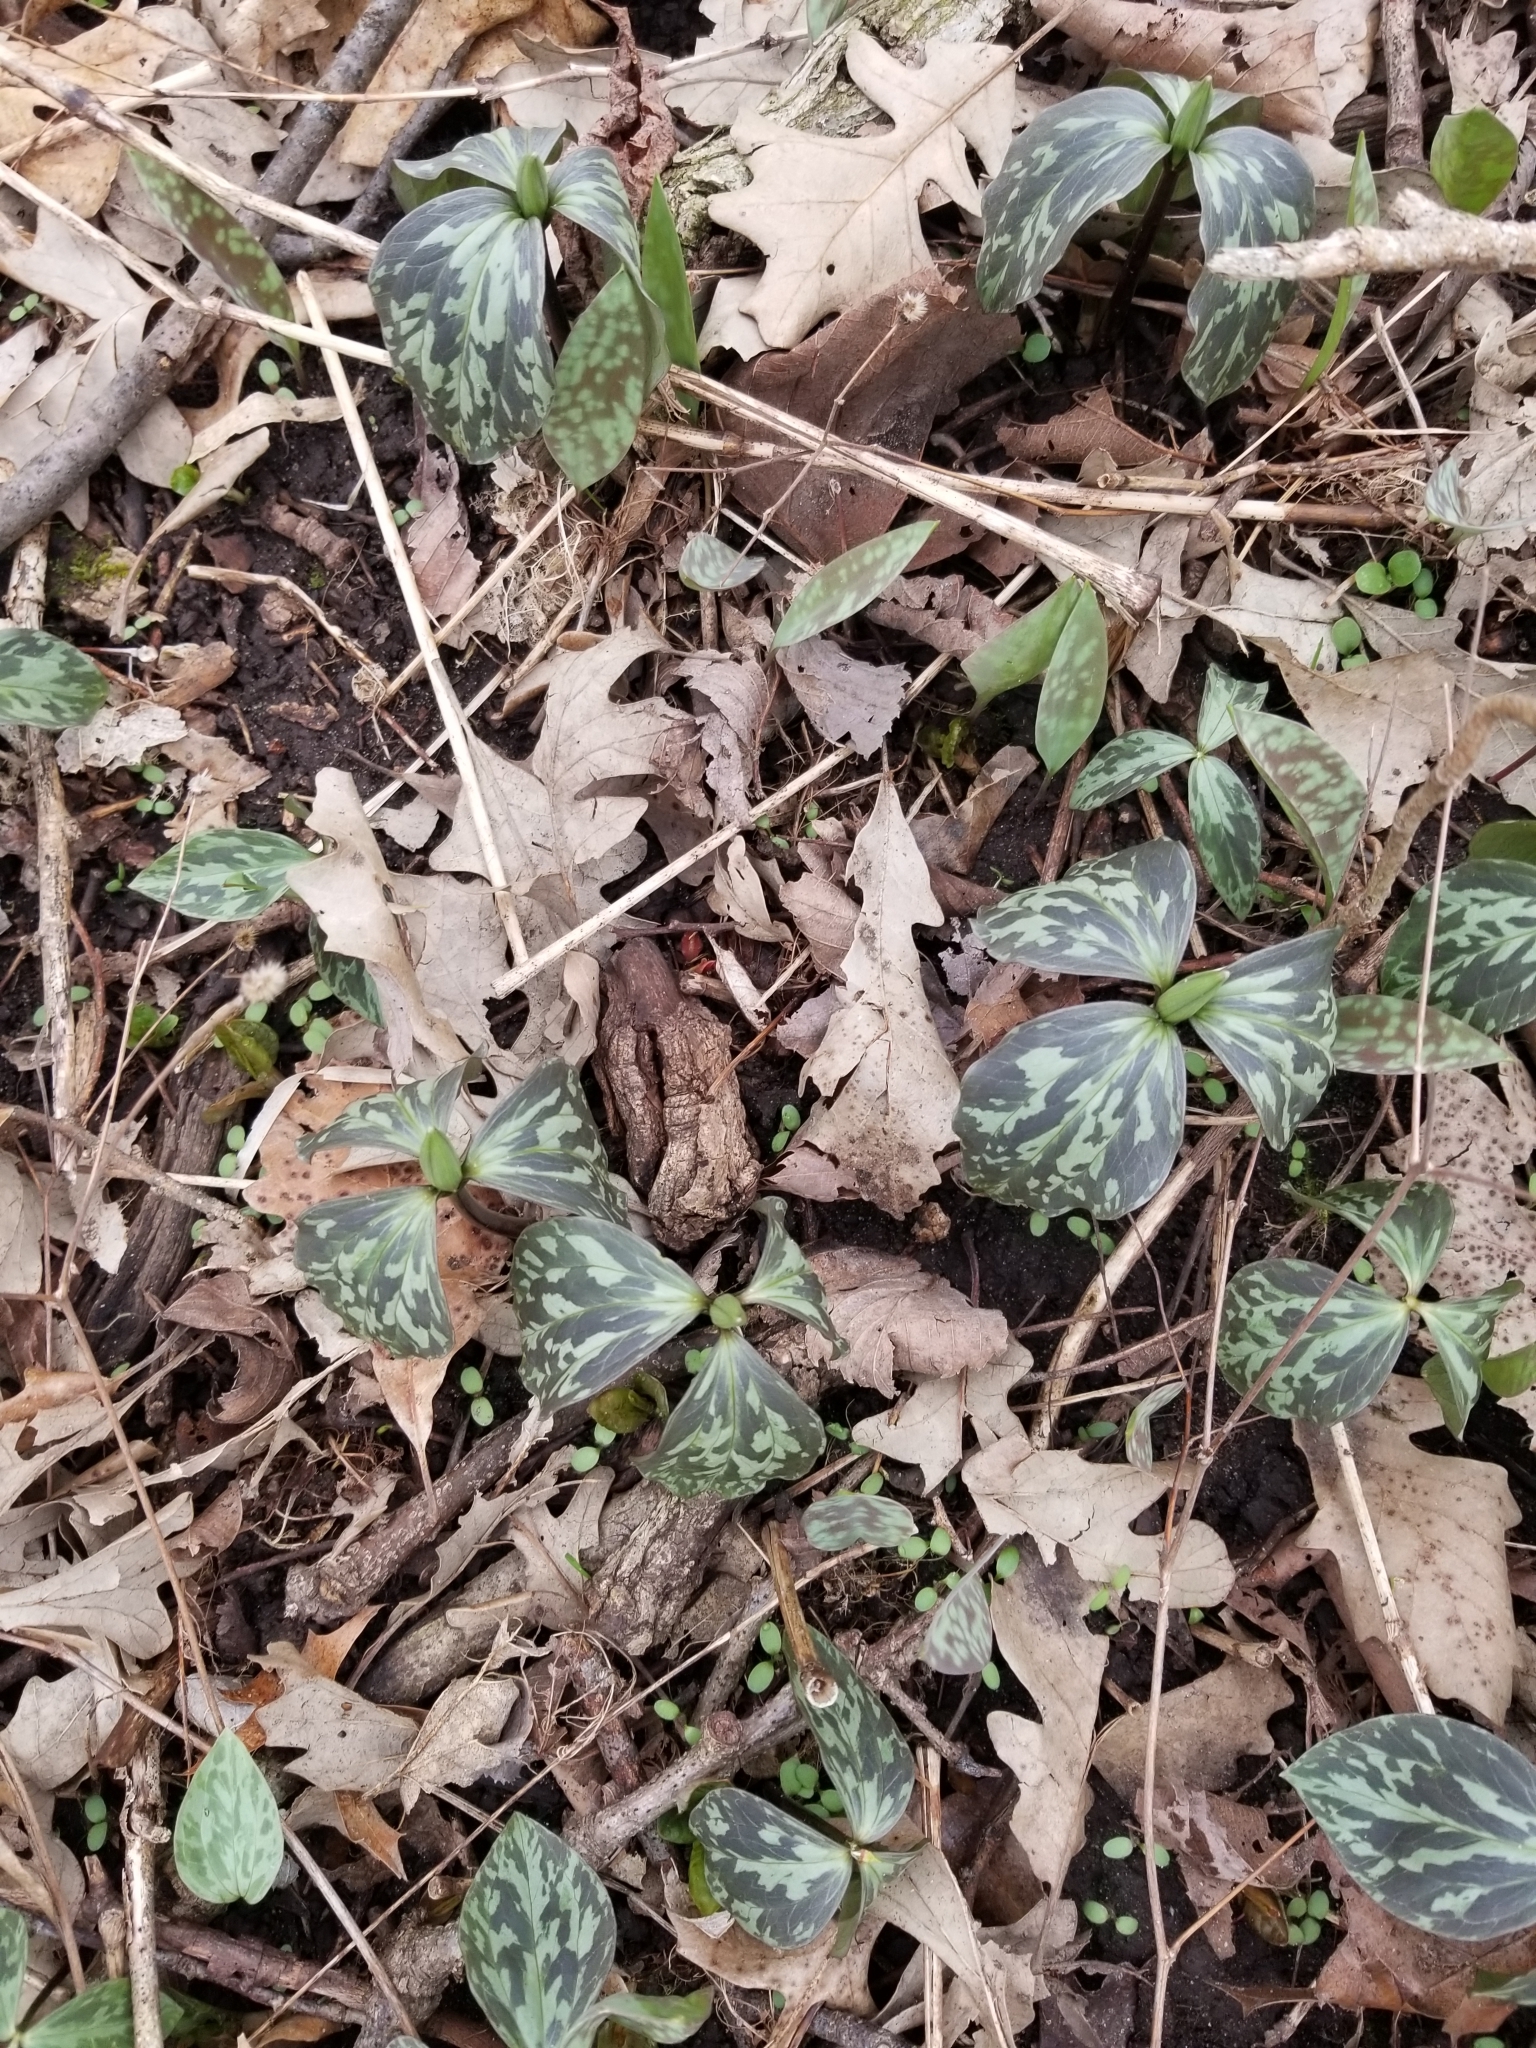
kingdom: Plantae
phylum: Tracheophyta
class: Liliopsida
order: Liliales
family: Melanthiaceae
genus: Trillium
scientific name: Trillium recurvatum
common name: Bloody butcher
